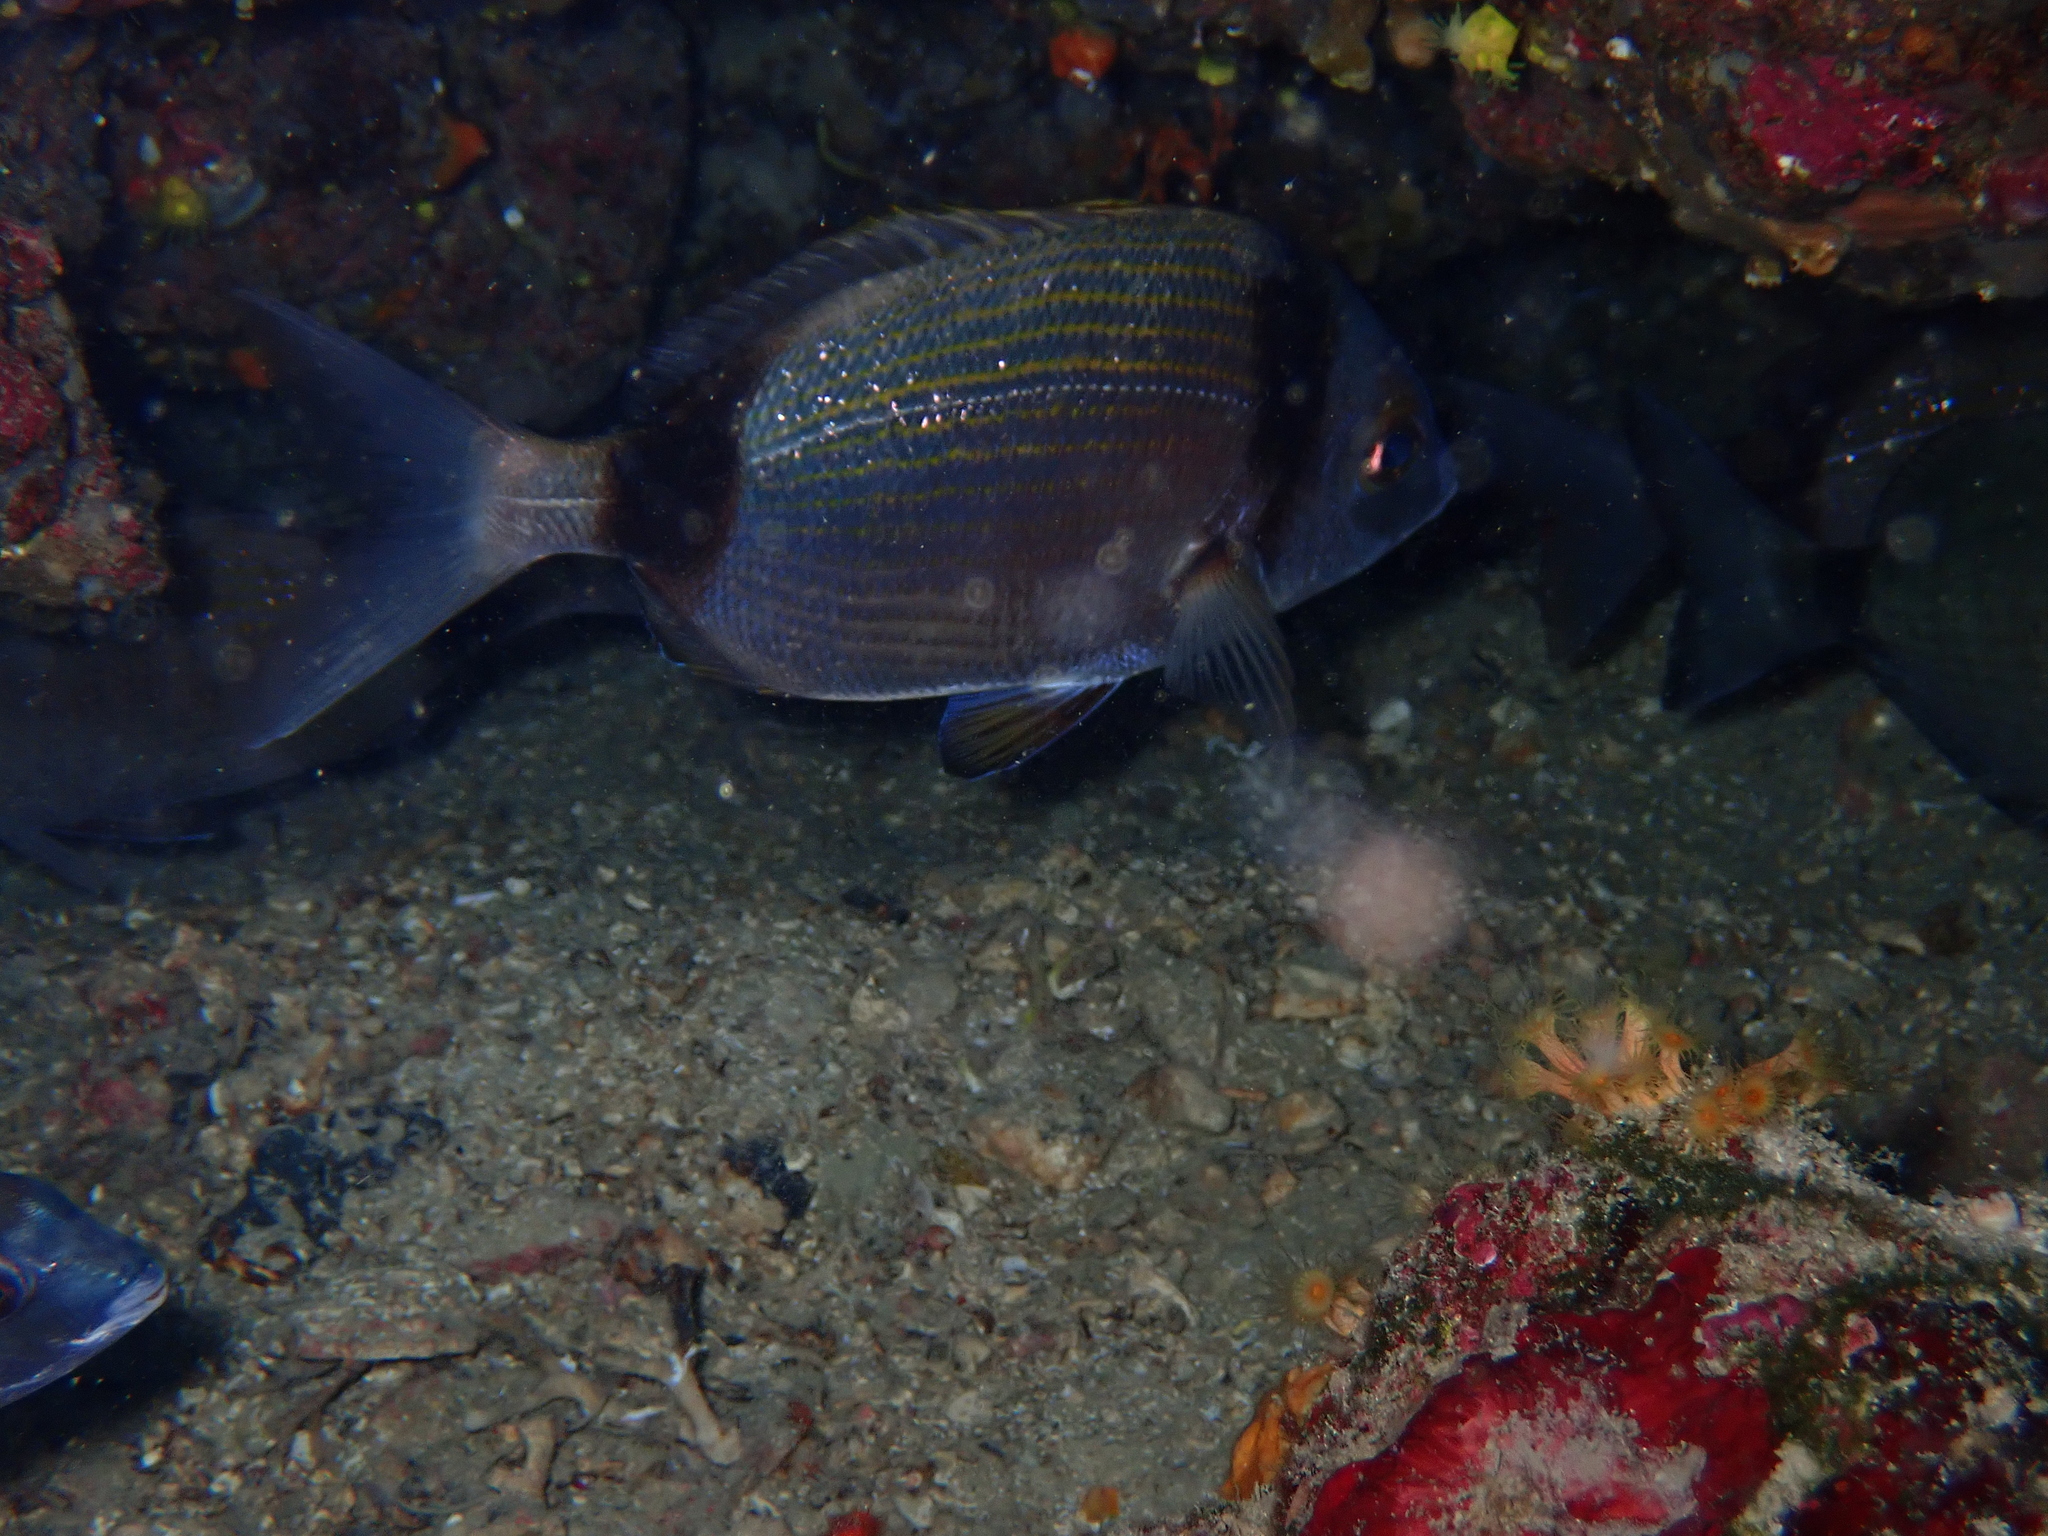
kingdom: Animalia
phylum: Chordata
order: Perciformes
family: Sparidae
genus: Diplodus
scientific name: Diplodus vulgaris
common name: Common two-banded seabream
